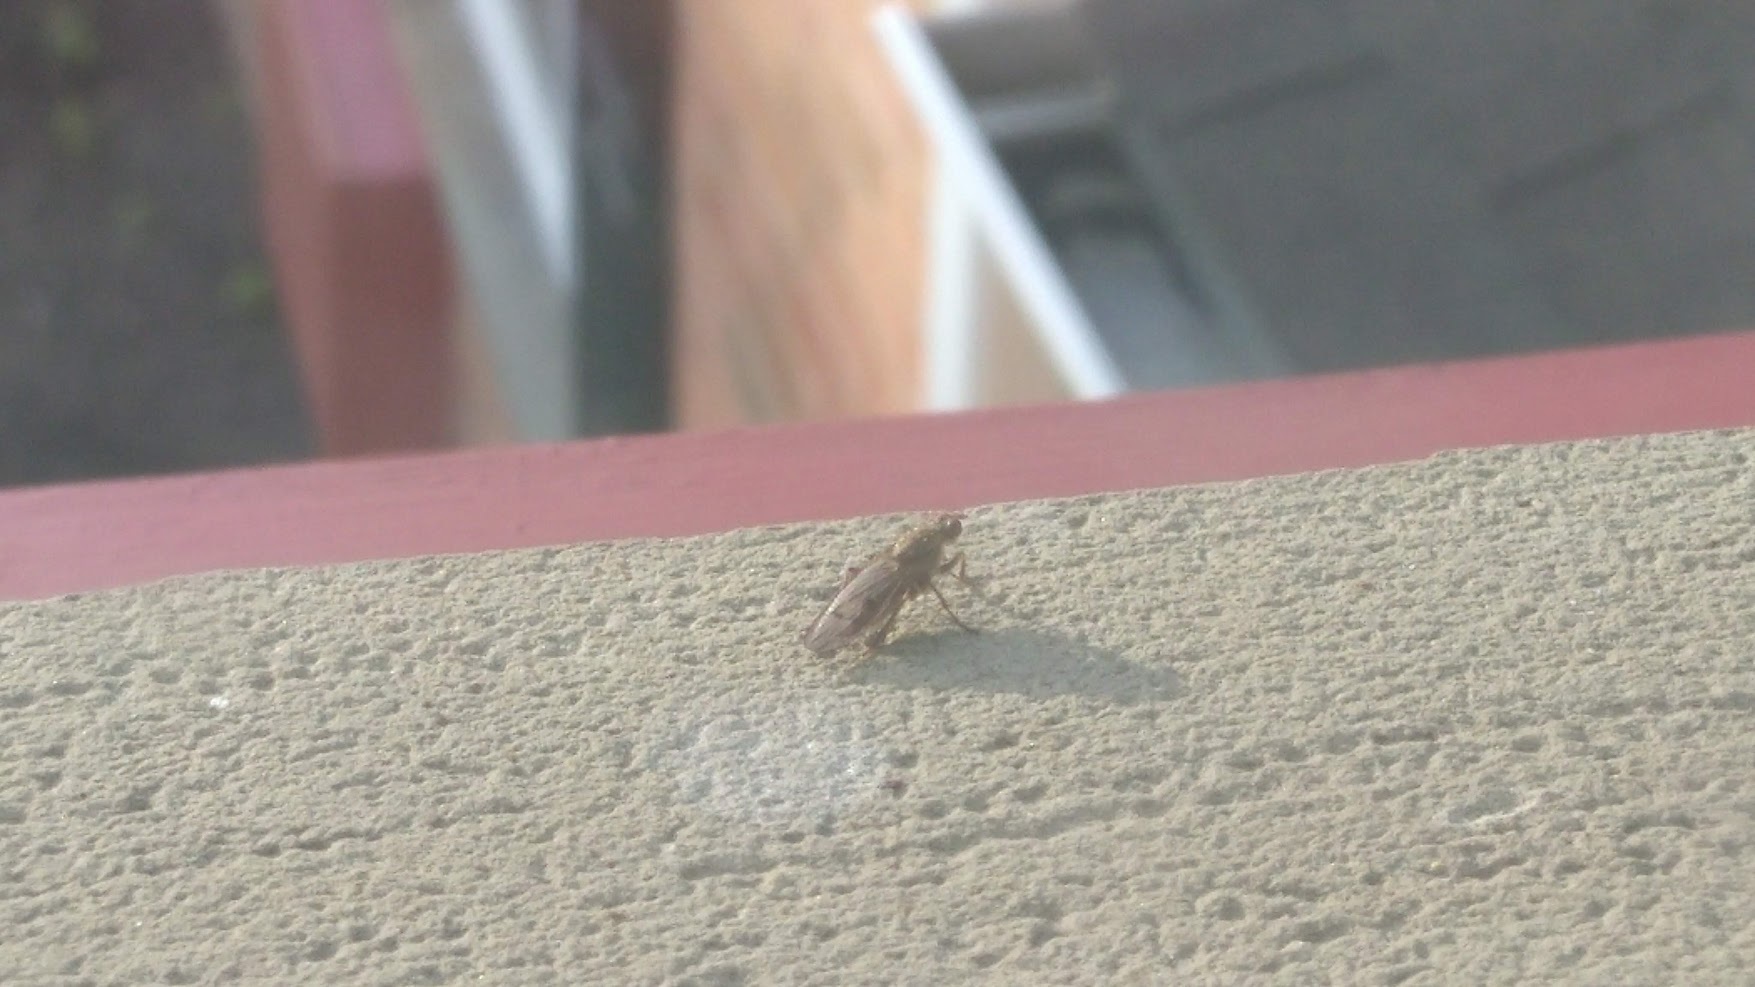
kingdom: Animalia
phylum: Arthropoda
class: Insecta
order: Diptera
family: Scathophagidae
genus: Scathophaga
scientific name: Scathophaga
